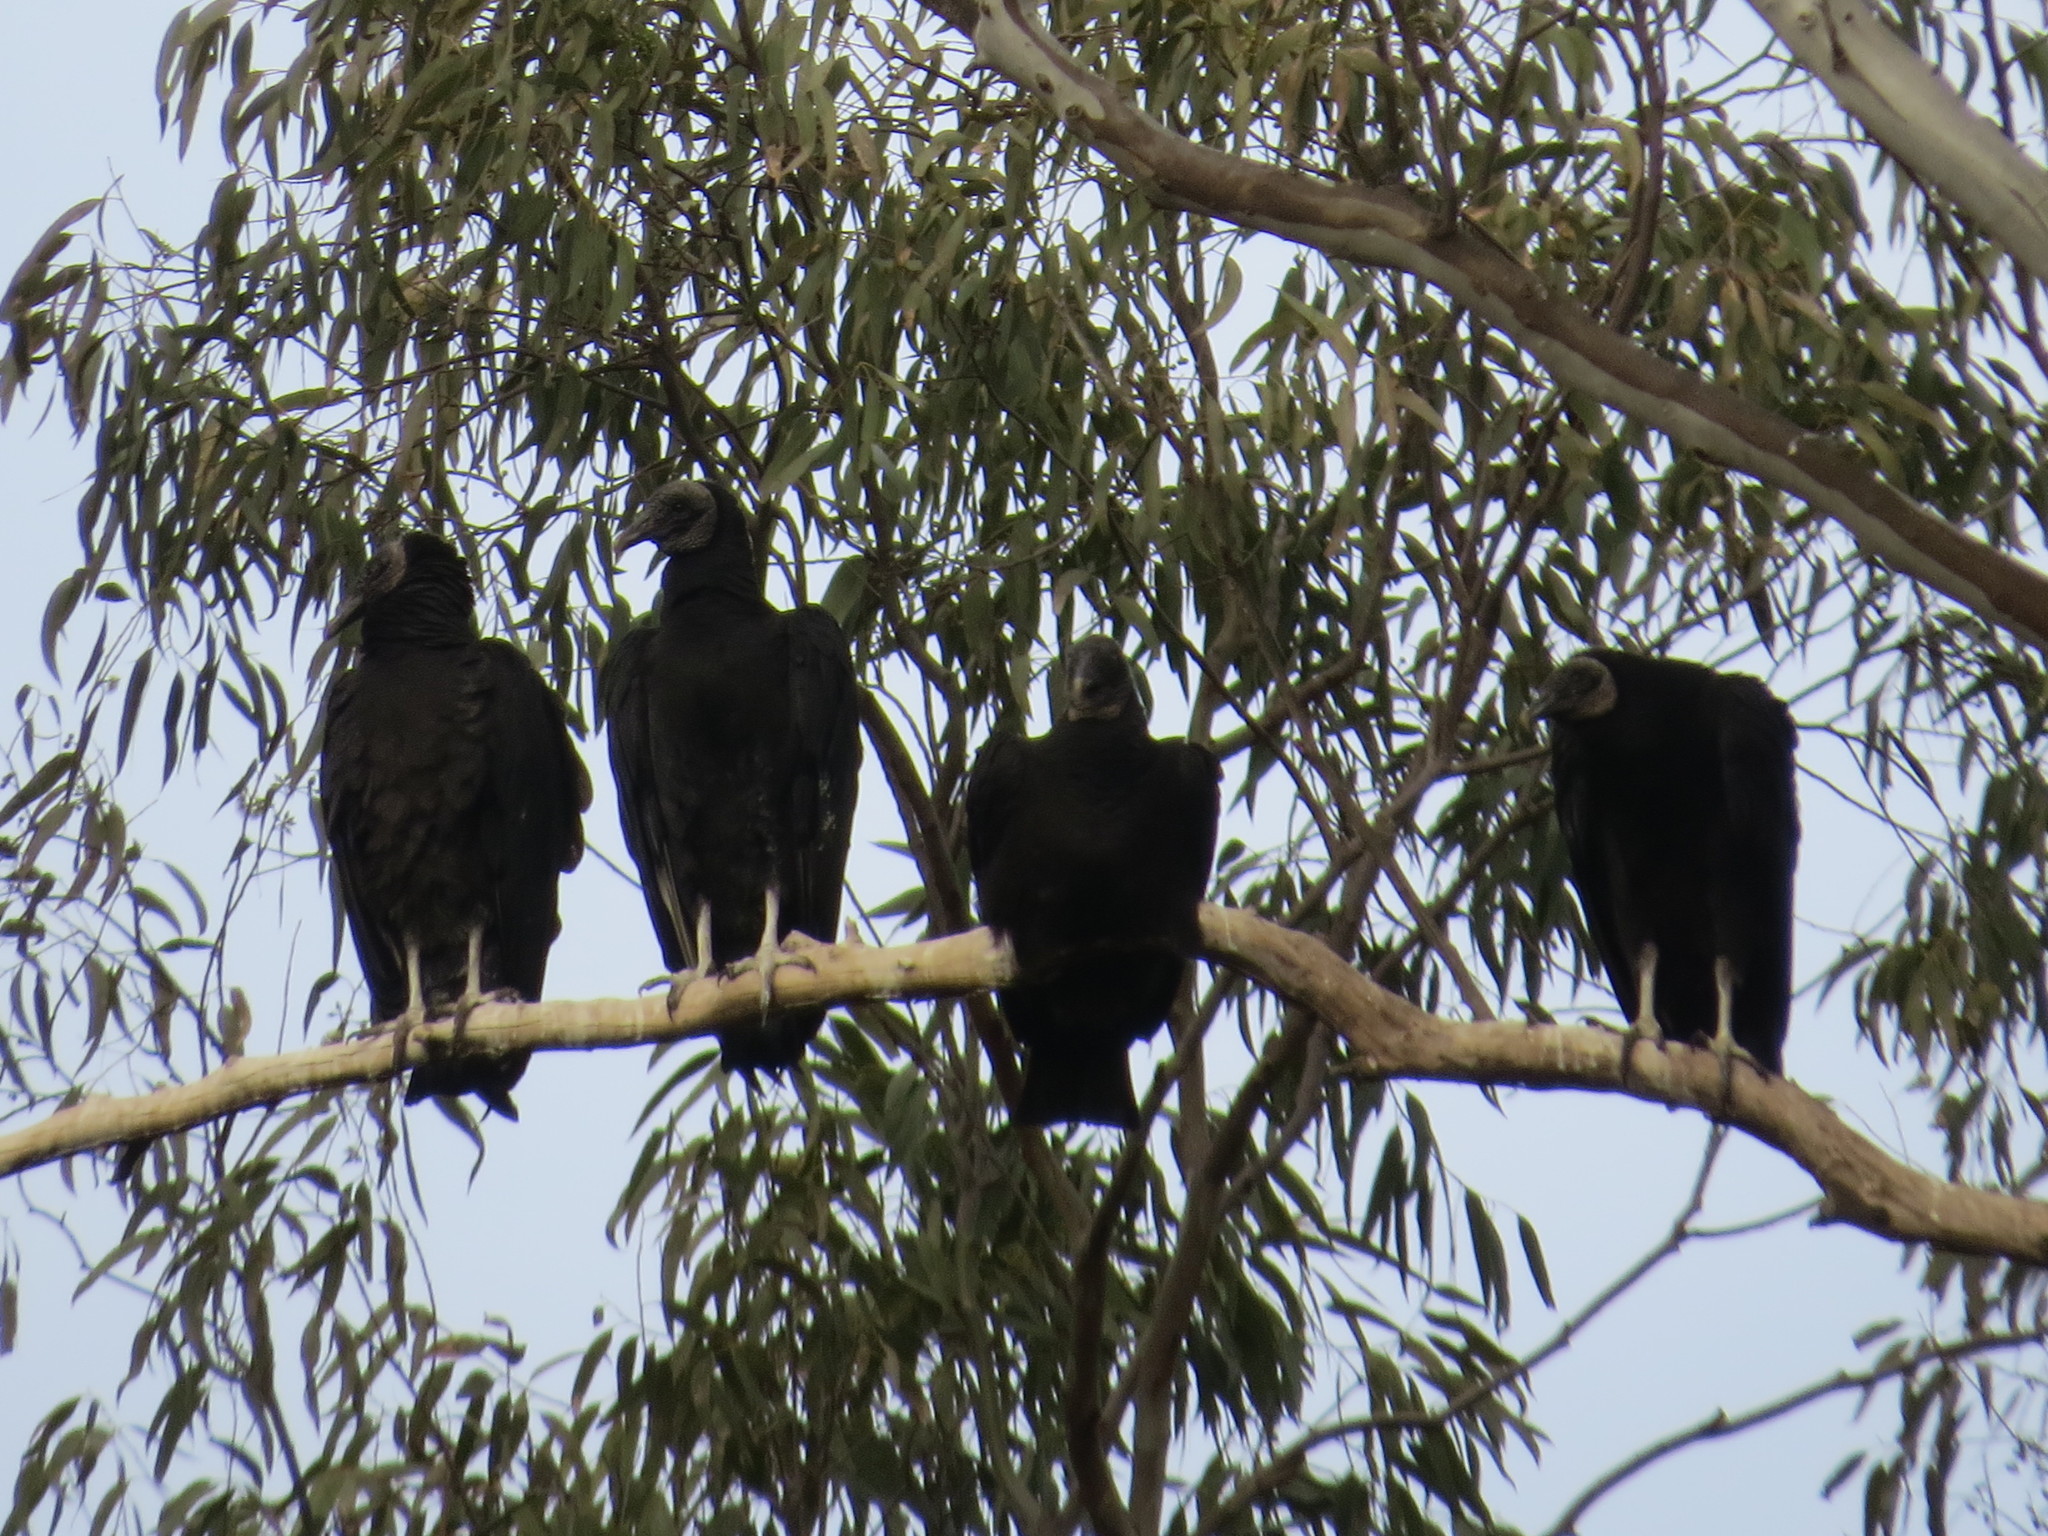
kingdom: Animalia
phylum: Chordata
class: Aves
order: Accipitriformes
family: Cathartidae
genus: Coragyps
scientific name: Coragyps atratus
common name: Black vulture
